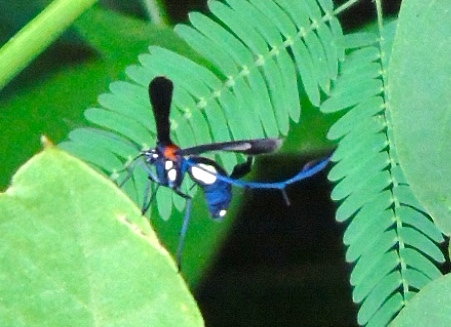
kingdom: Animalia
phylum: Arthropoda
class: Insecta
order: Lepidoptera
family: Pterophoridae
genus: Hellinsia
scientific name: Hellinsia chamelai
